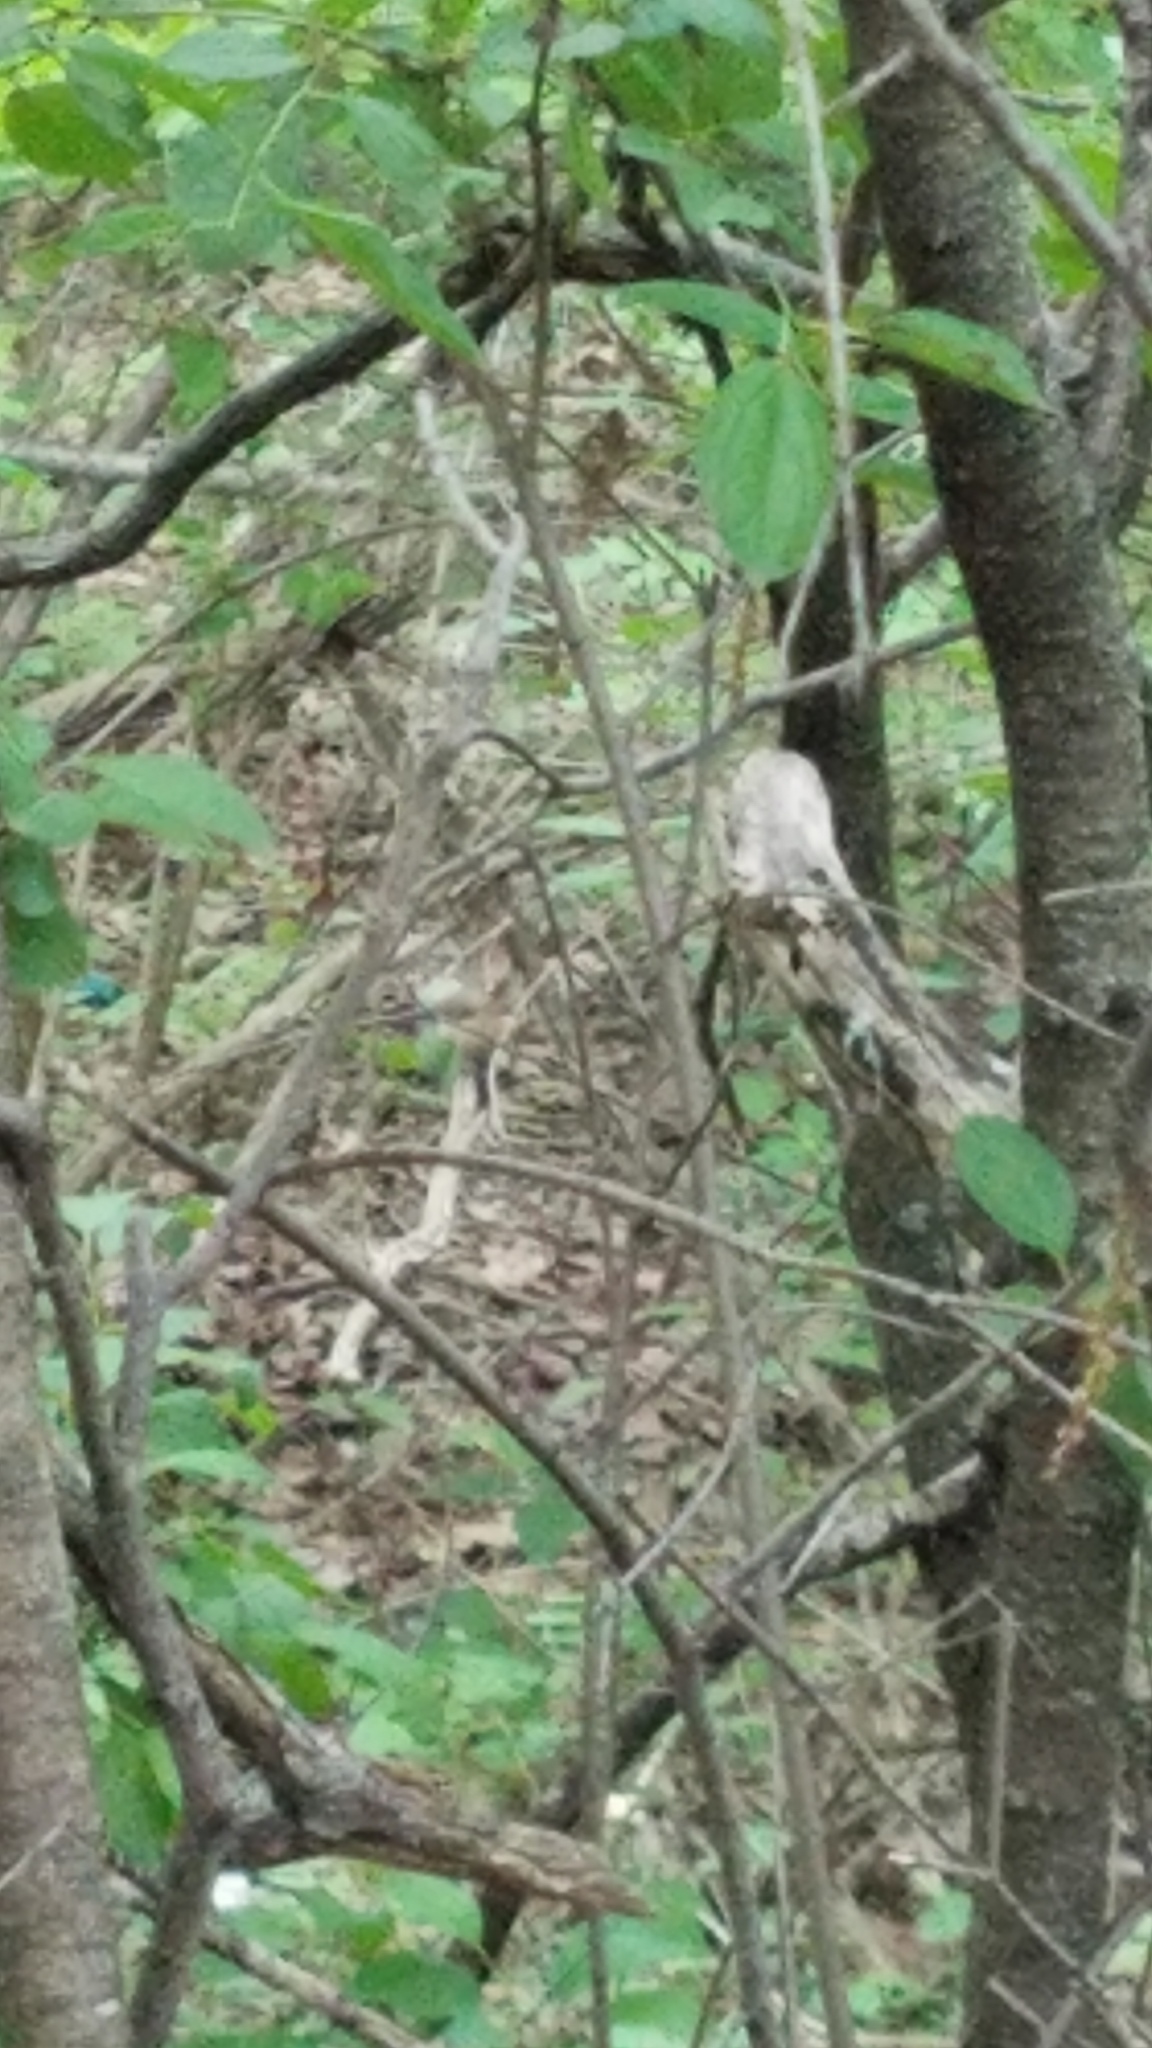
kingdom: Animalia
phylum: Chordata
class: Aves
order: Passeriformes
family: Cardinalidae
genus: Cardinalis
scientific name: Cardinalis cardinalis
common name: Northern cardinal
